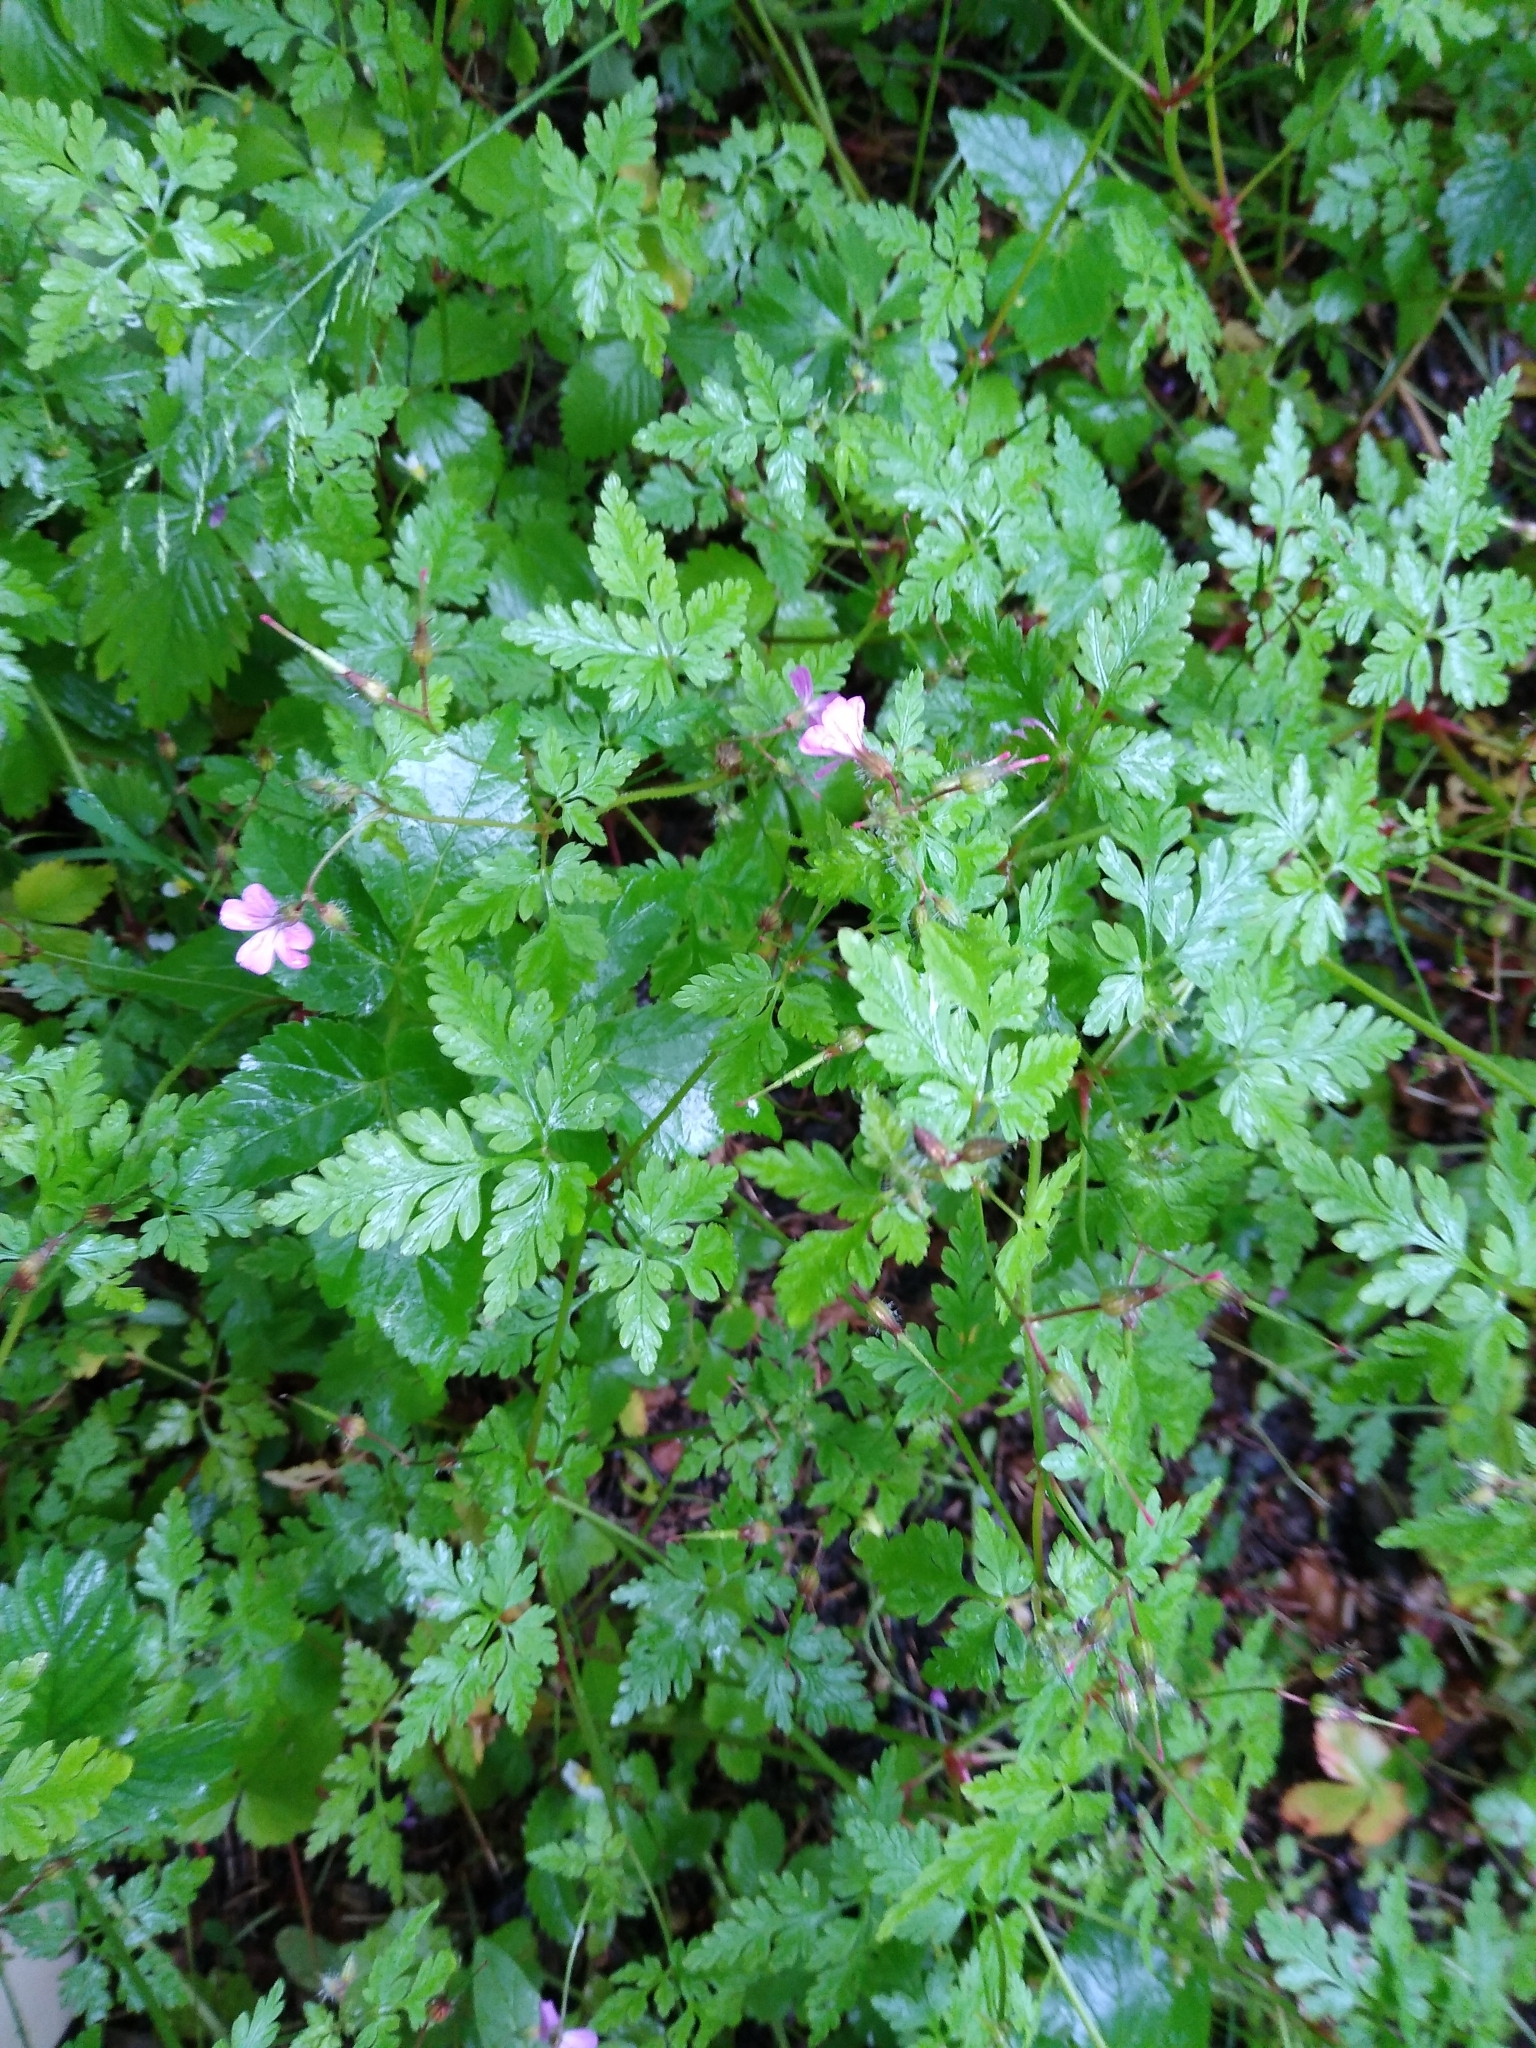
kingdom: Plantae
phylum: Tracheophyta
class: Magnoliopsida
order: Geraniales
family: Geraniaceae
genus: Geranium
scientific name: Geranium robertianum
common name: Herb-robert
